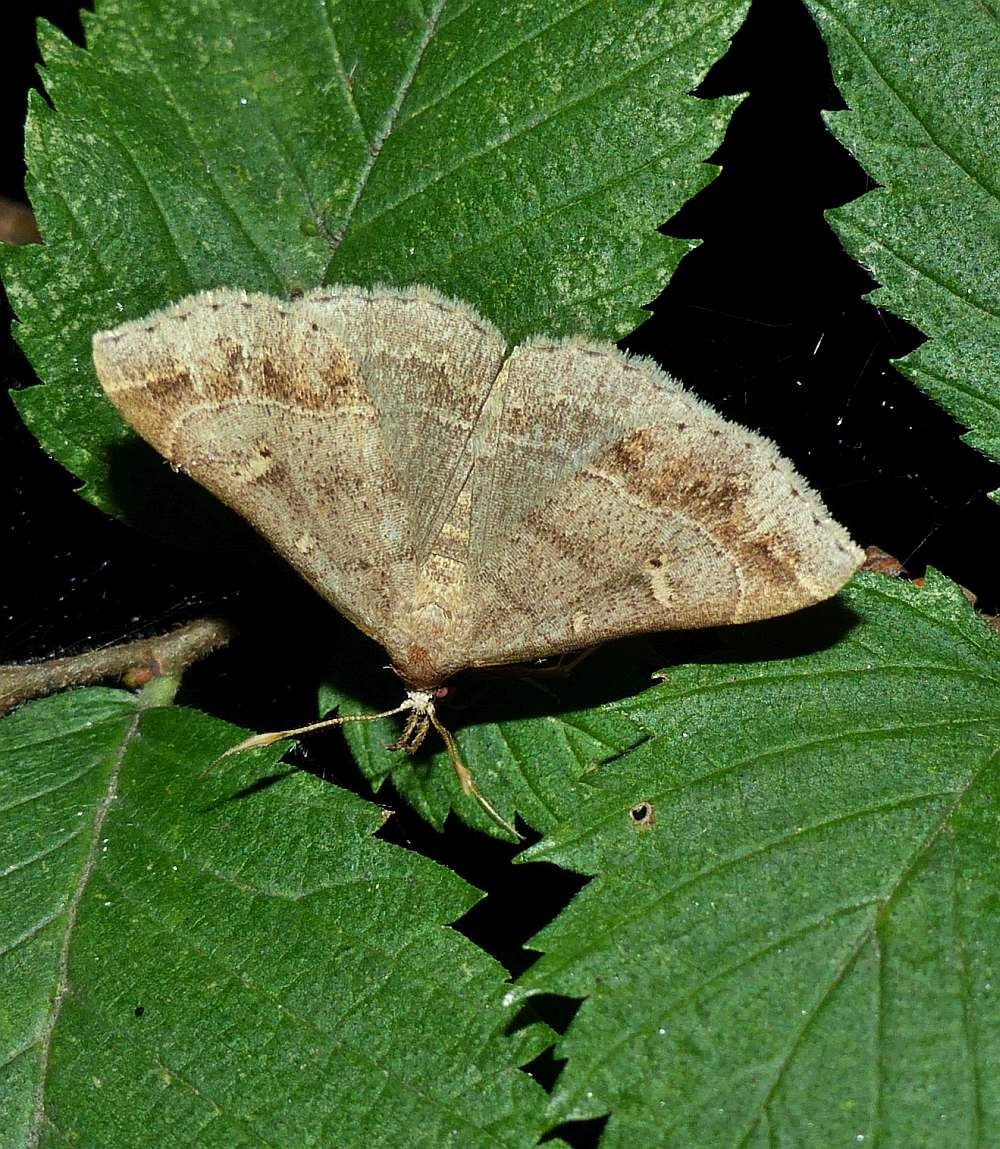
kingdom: Animalia
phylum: Arthropoda
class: Insecta
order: Lepidoptera
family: Erebidae
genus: Renia
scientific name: Renia flavipunctalis
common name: Yellow-spotted renia moth
